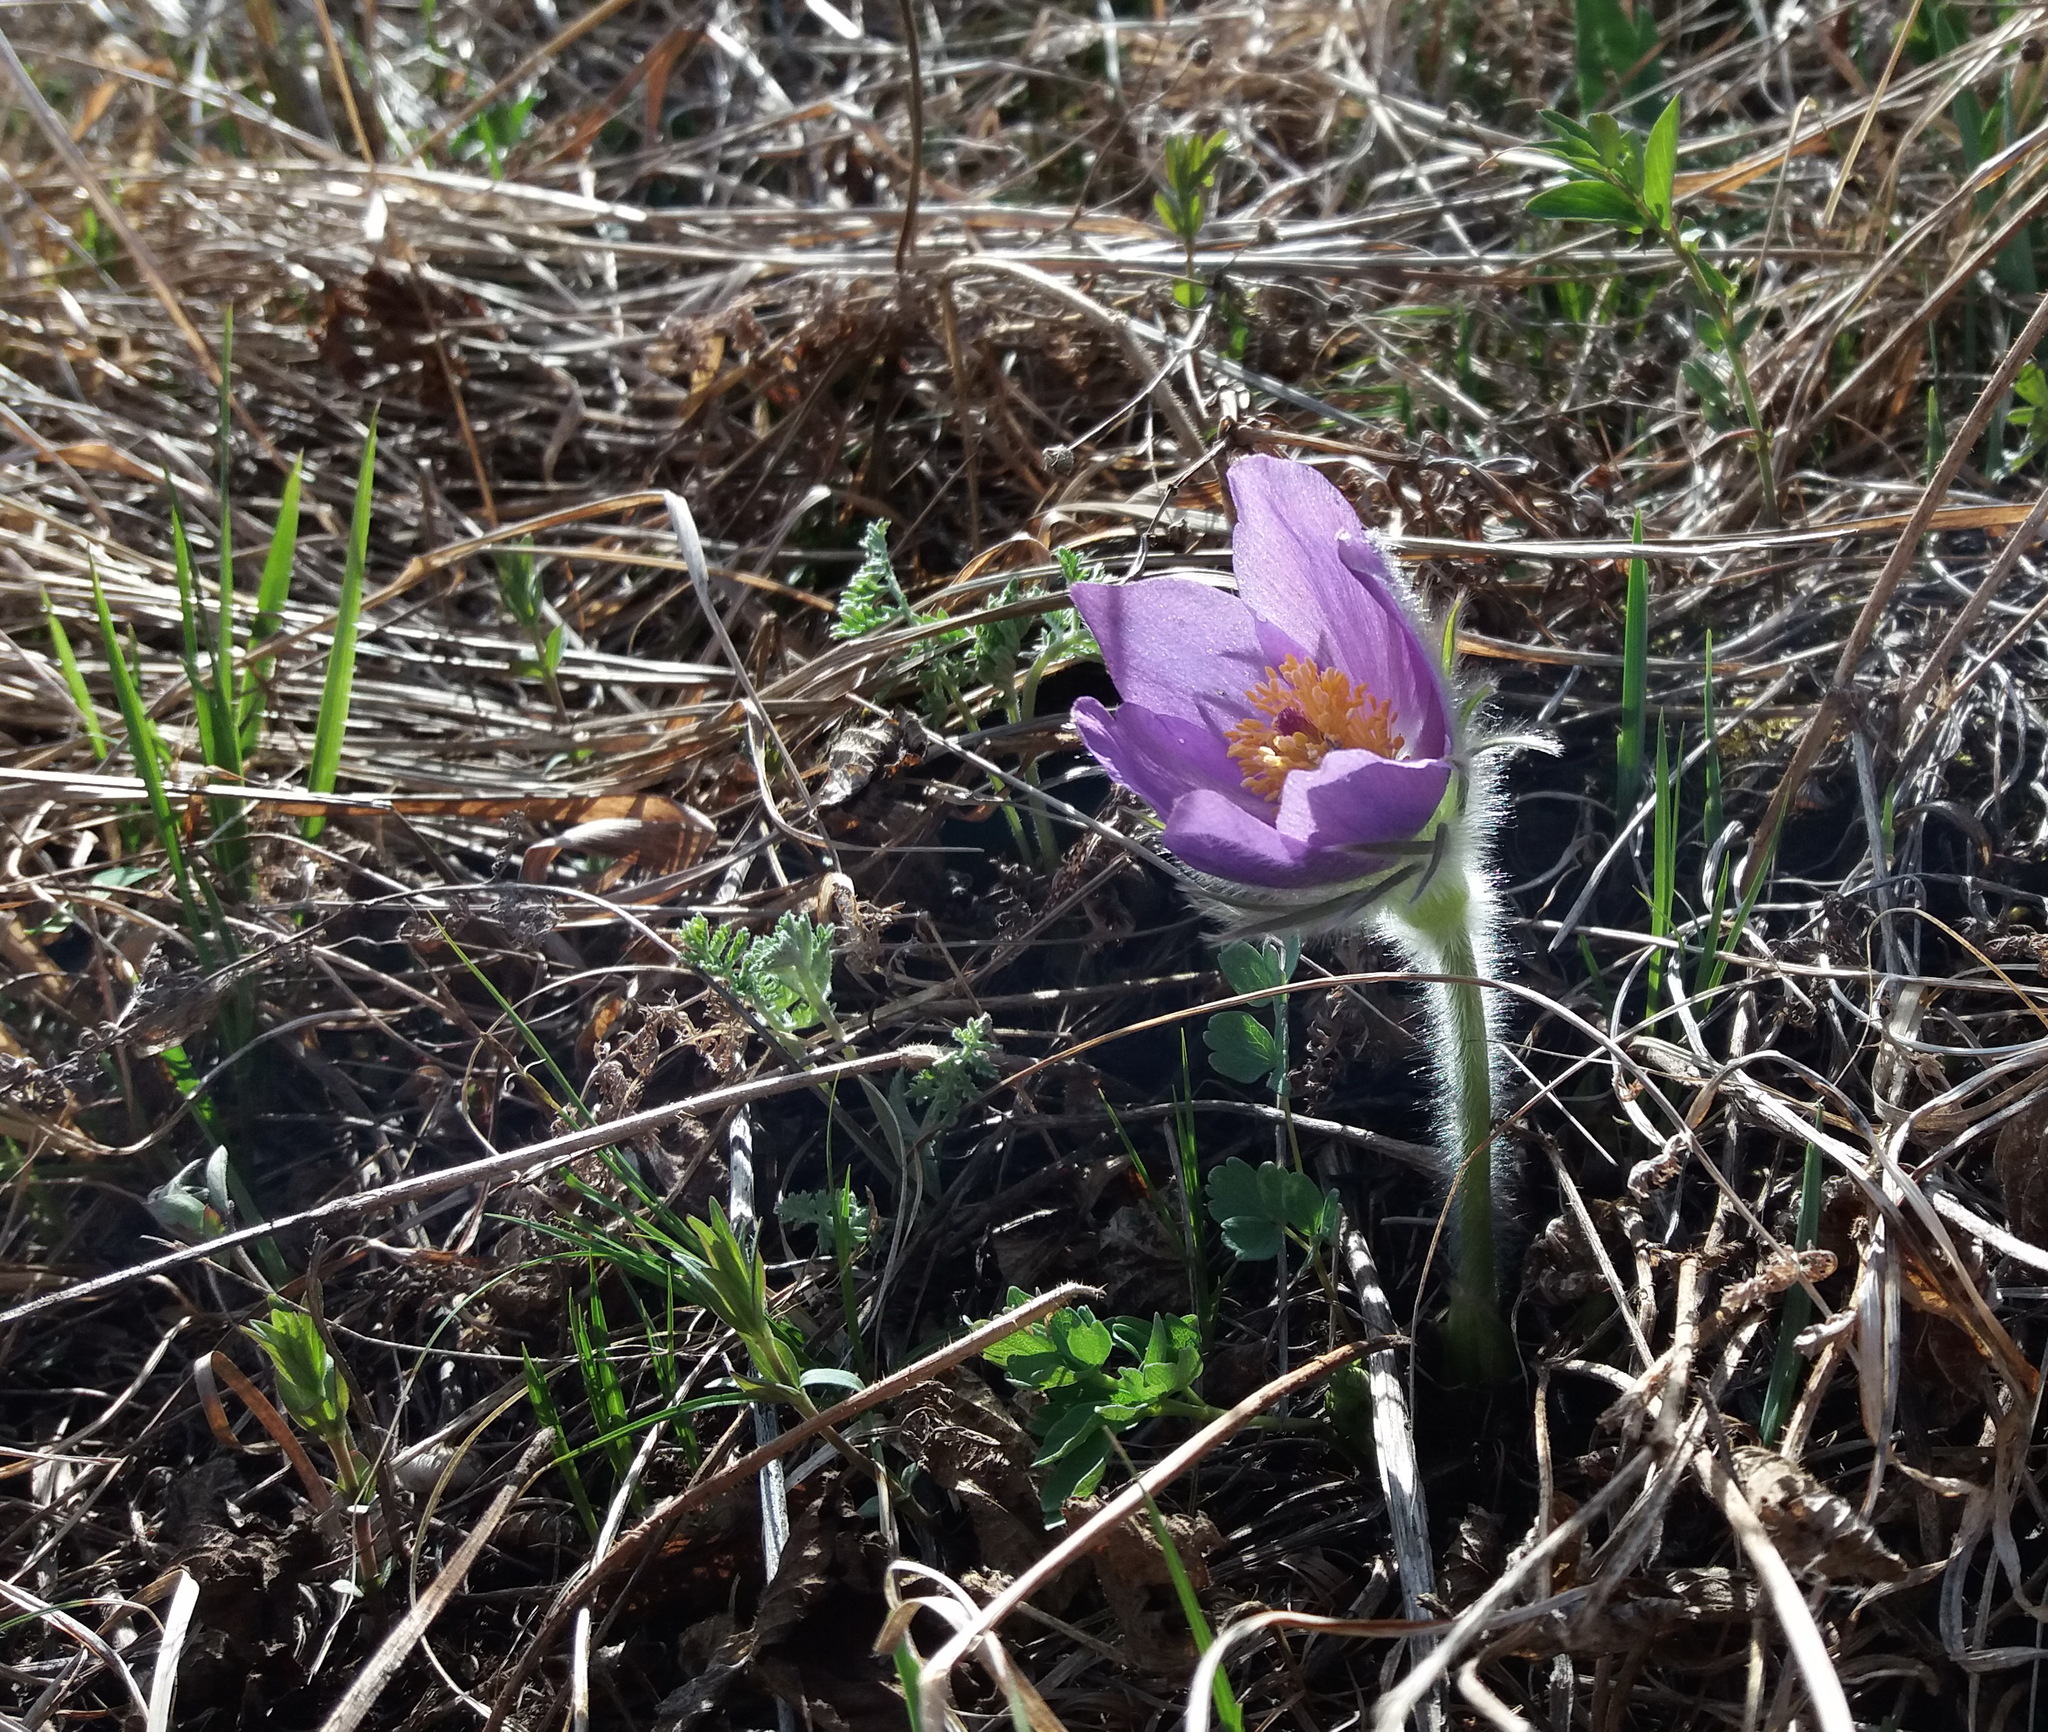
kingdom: Plantae
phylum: Tracheophyta
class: Magnoliopsida
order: Ranunculales
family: Ranunculaceae
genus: Pulsatilla
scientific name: Pulsatilla patens
